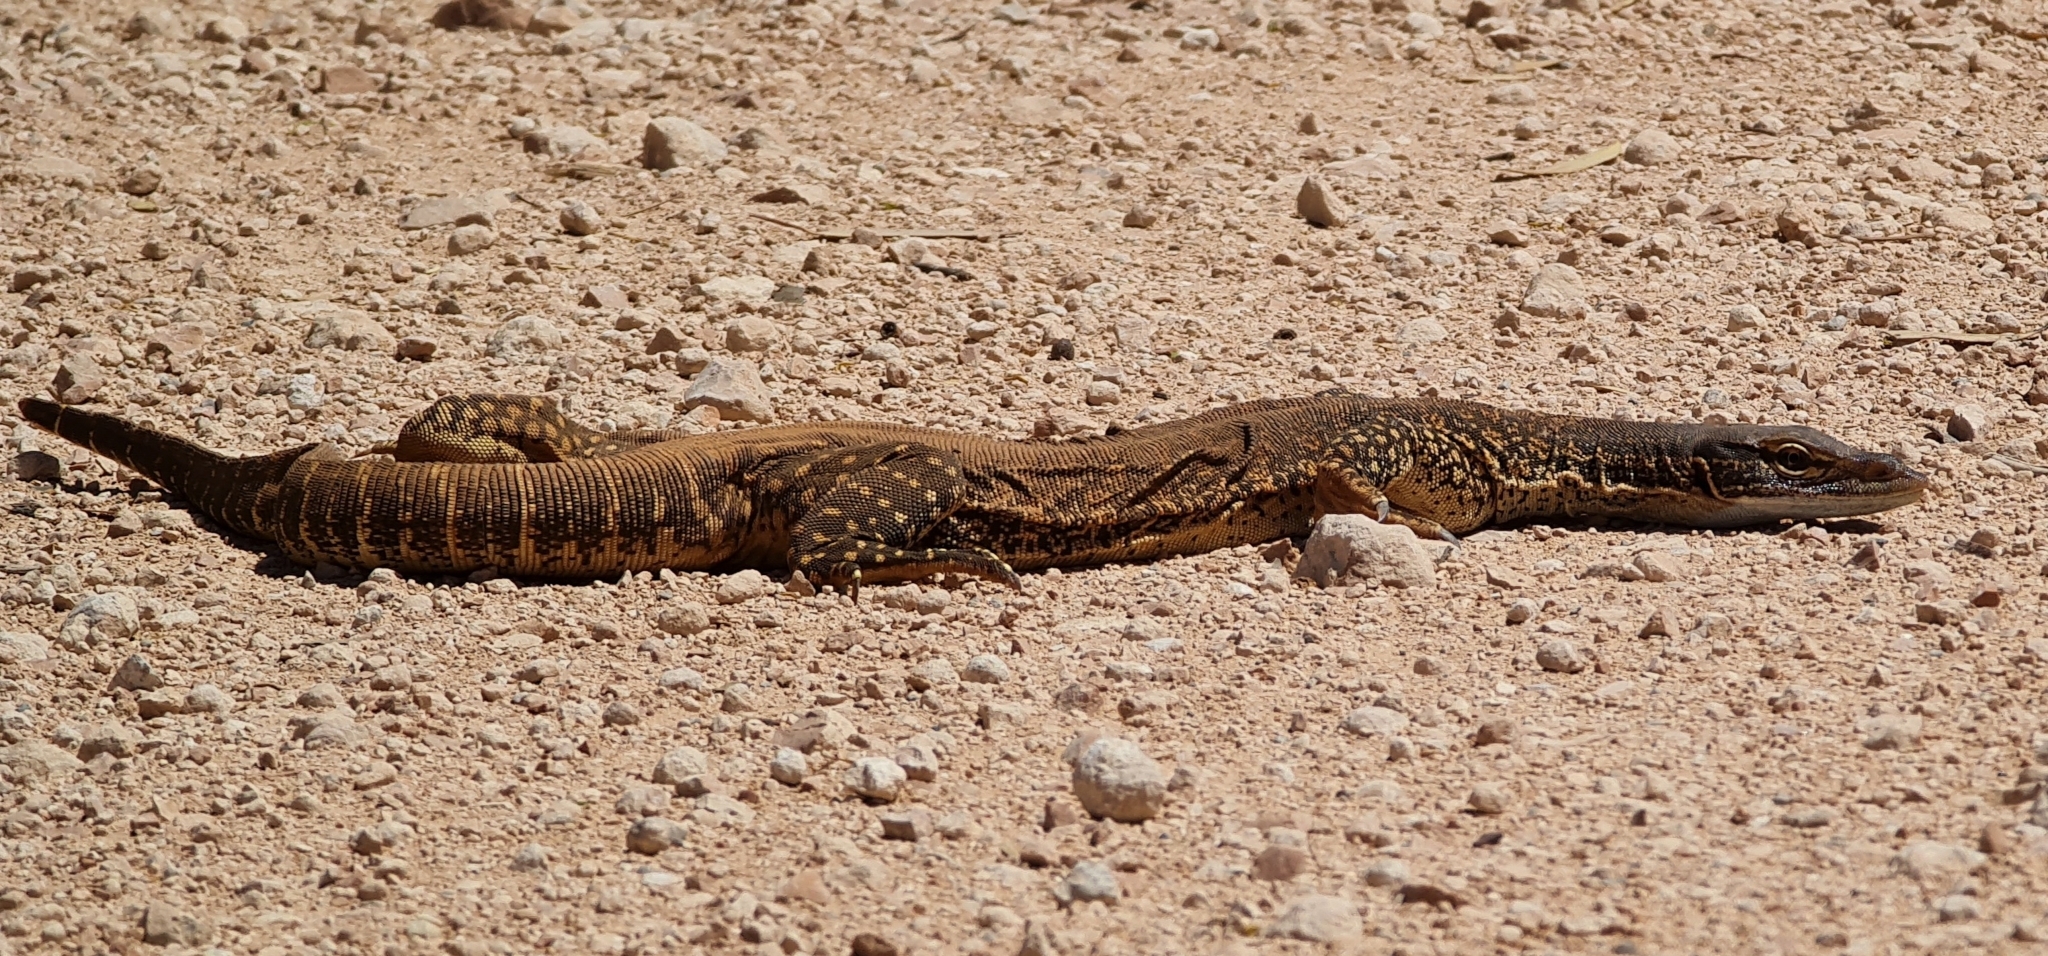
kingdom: Animalia
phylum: Chordata
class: Squamata
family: Varanidae
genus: Varanus
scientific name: Varanus gouldii
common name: Gould's goanna
